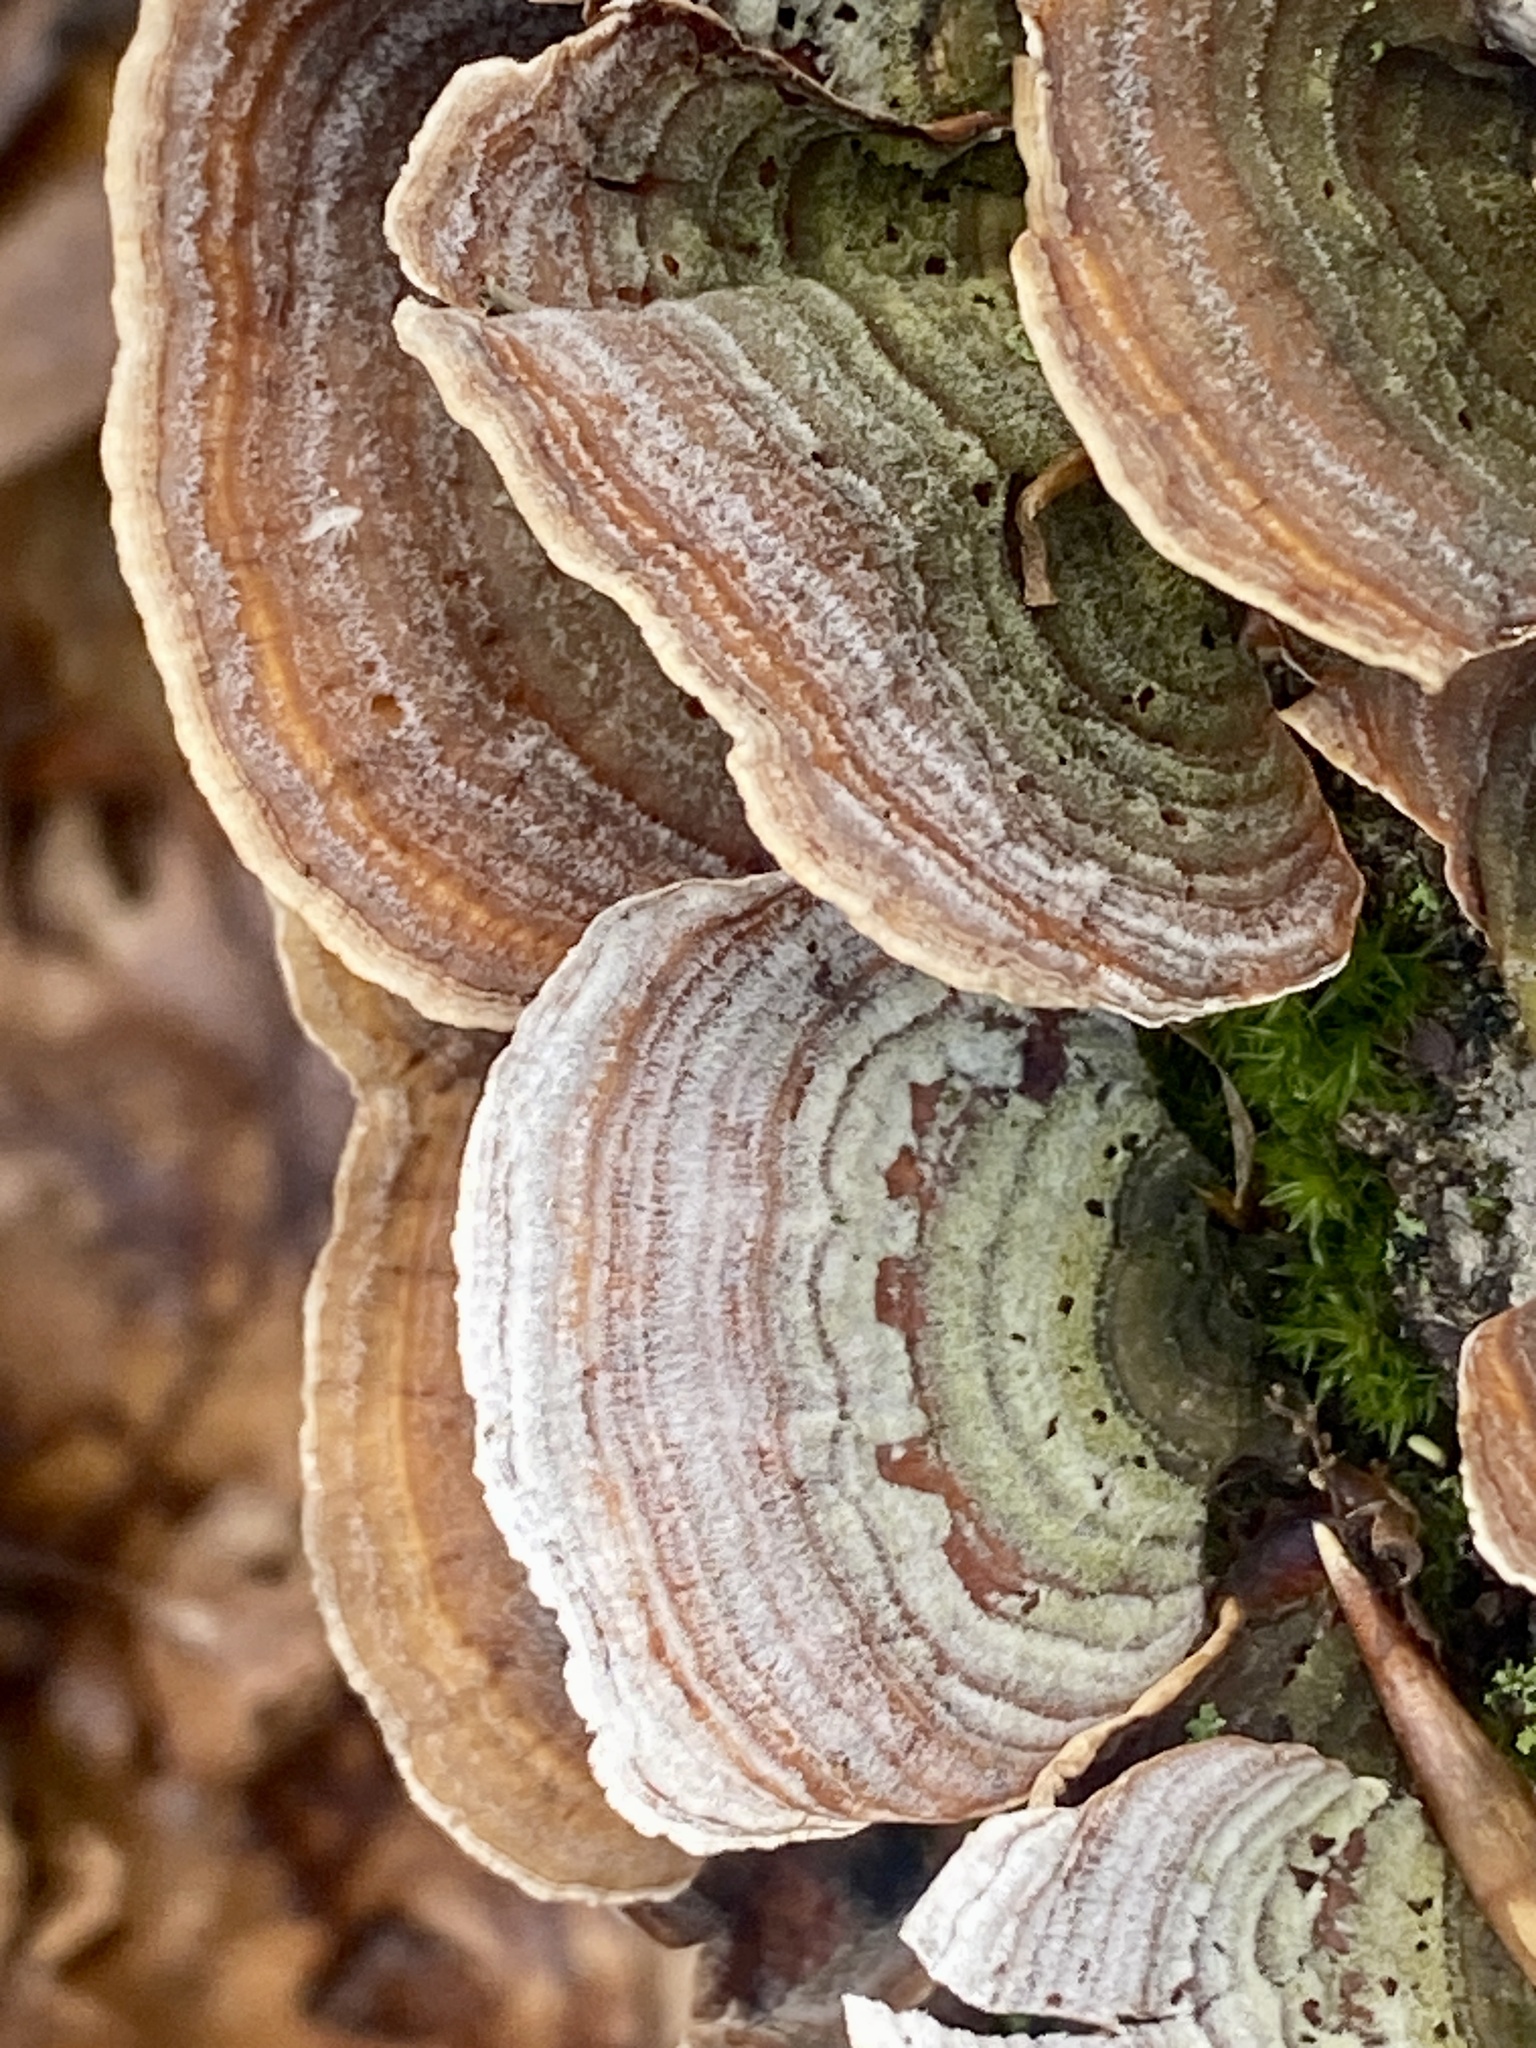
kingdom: Fungi
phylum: Basidiomycota
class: Agaricomycetes
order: Russulales
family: Stereaceae
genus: Stereum
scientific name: Stereum lobatum
